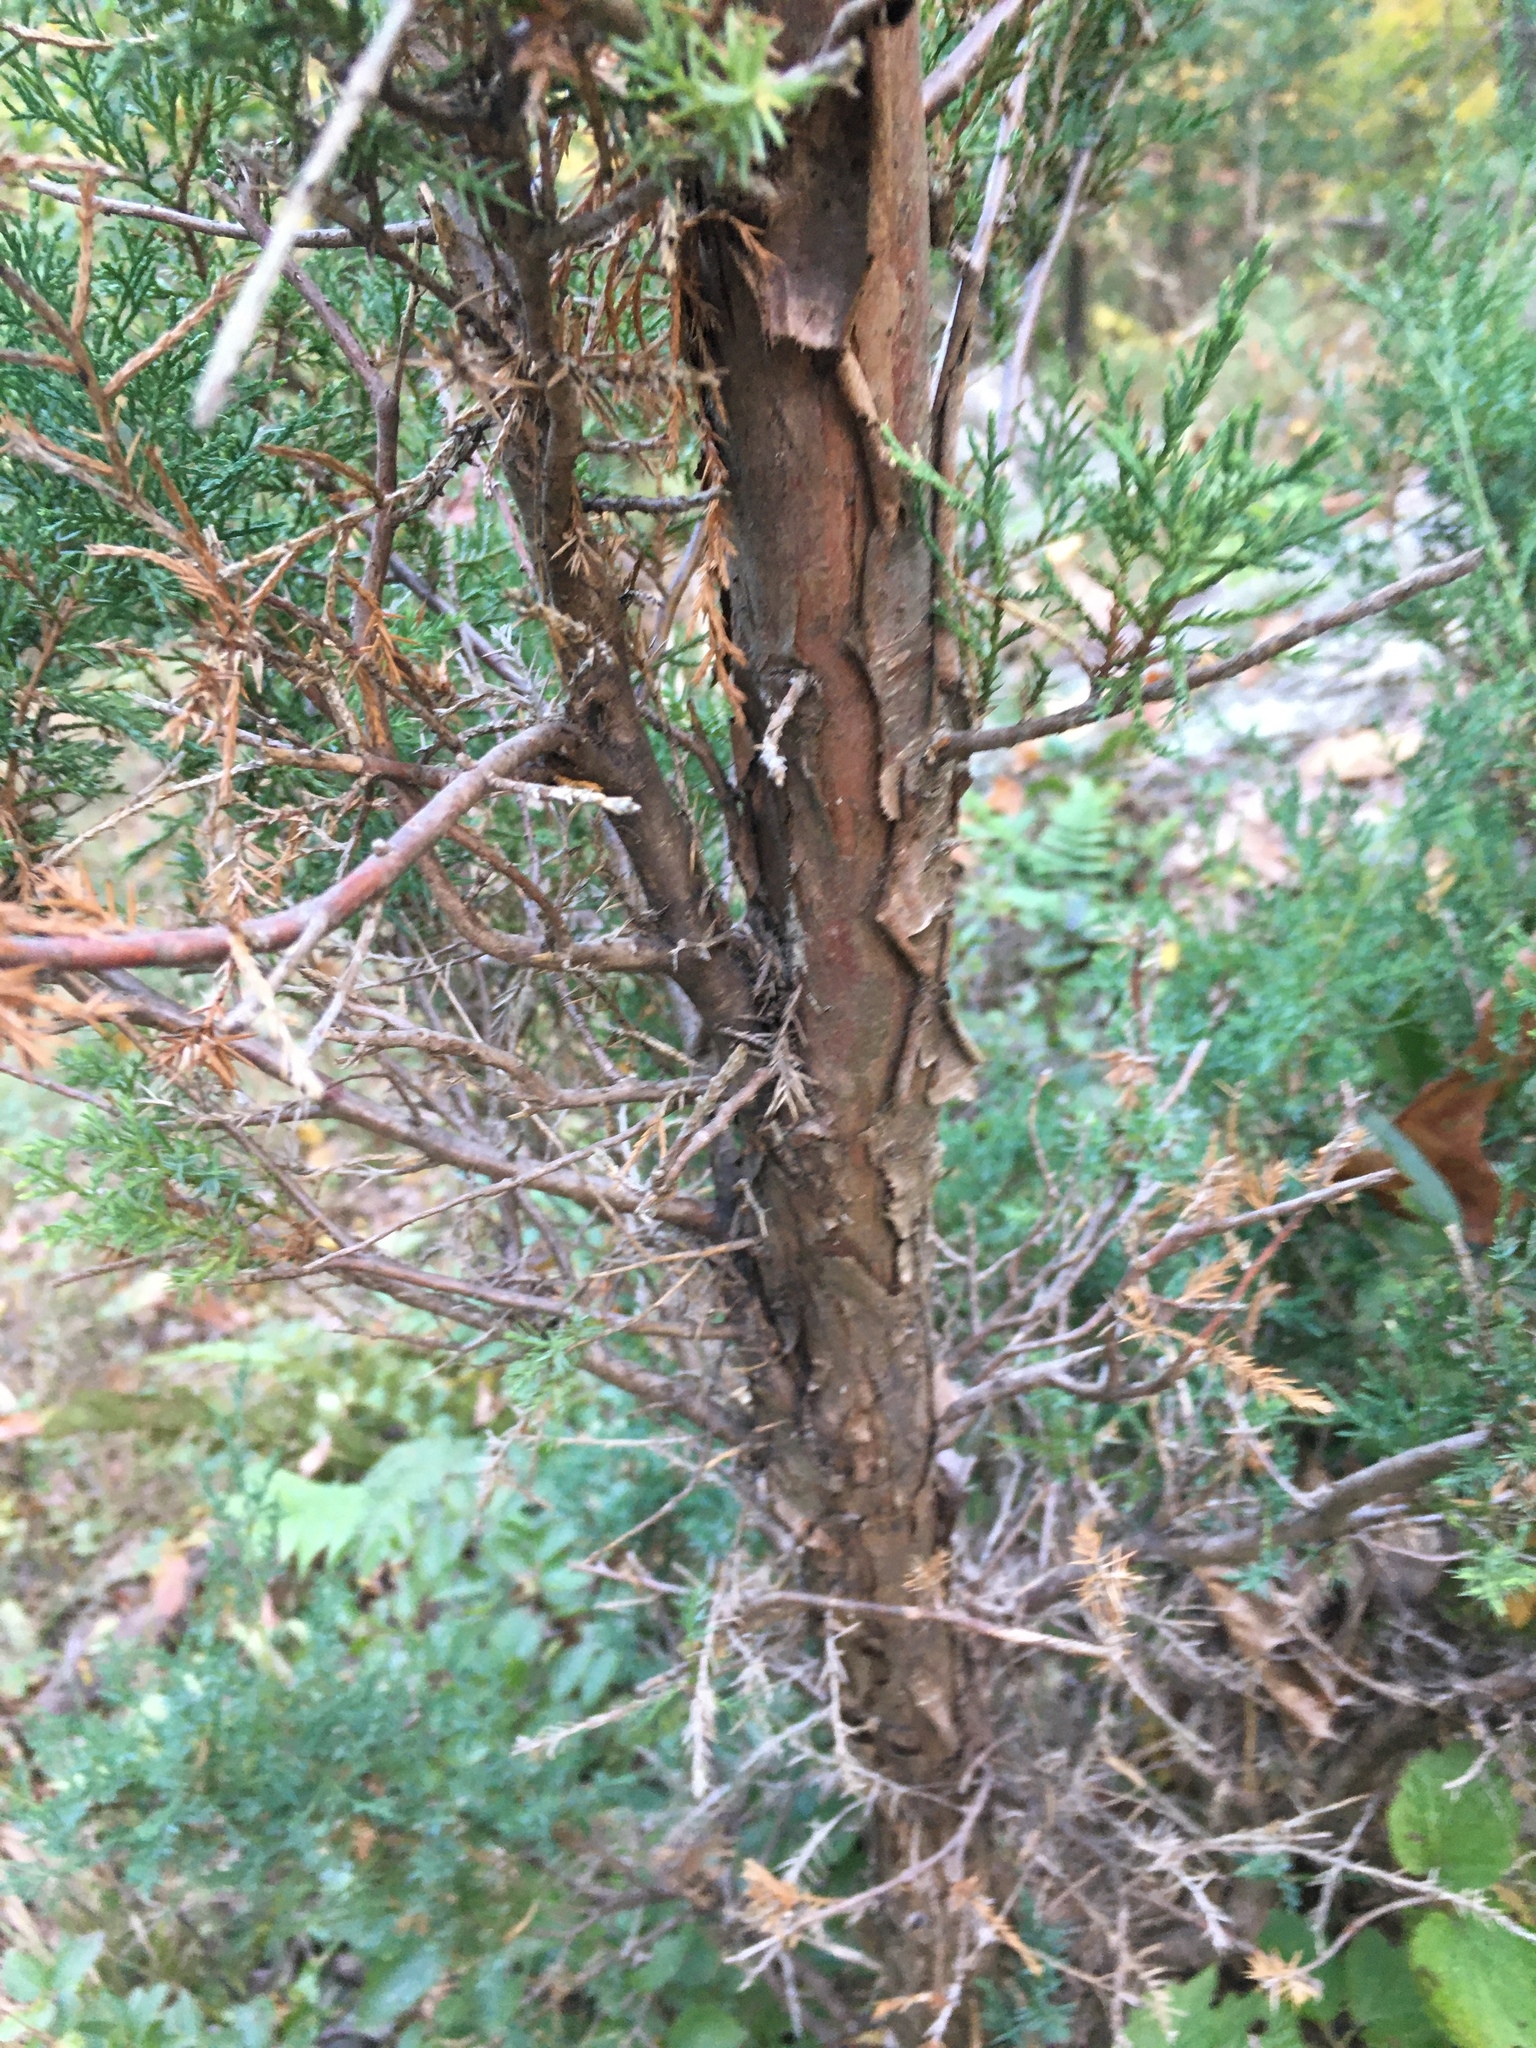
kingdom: Plantae
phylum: Tracheophyta
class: Pinopsida
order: Pinales
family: Cupressaceae
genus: Juniperus
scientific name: Juniperus virginiana
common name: Red juniper
